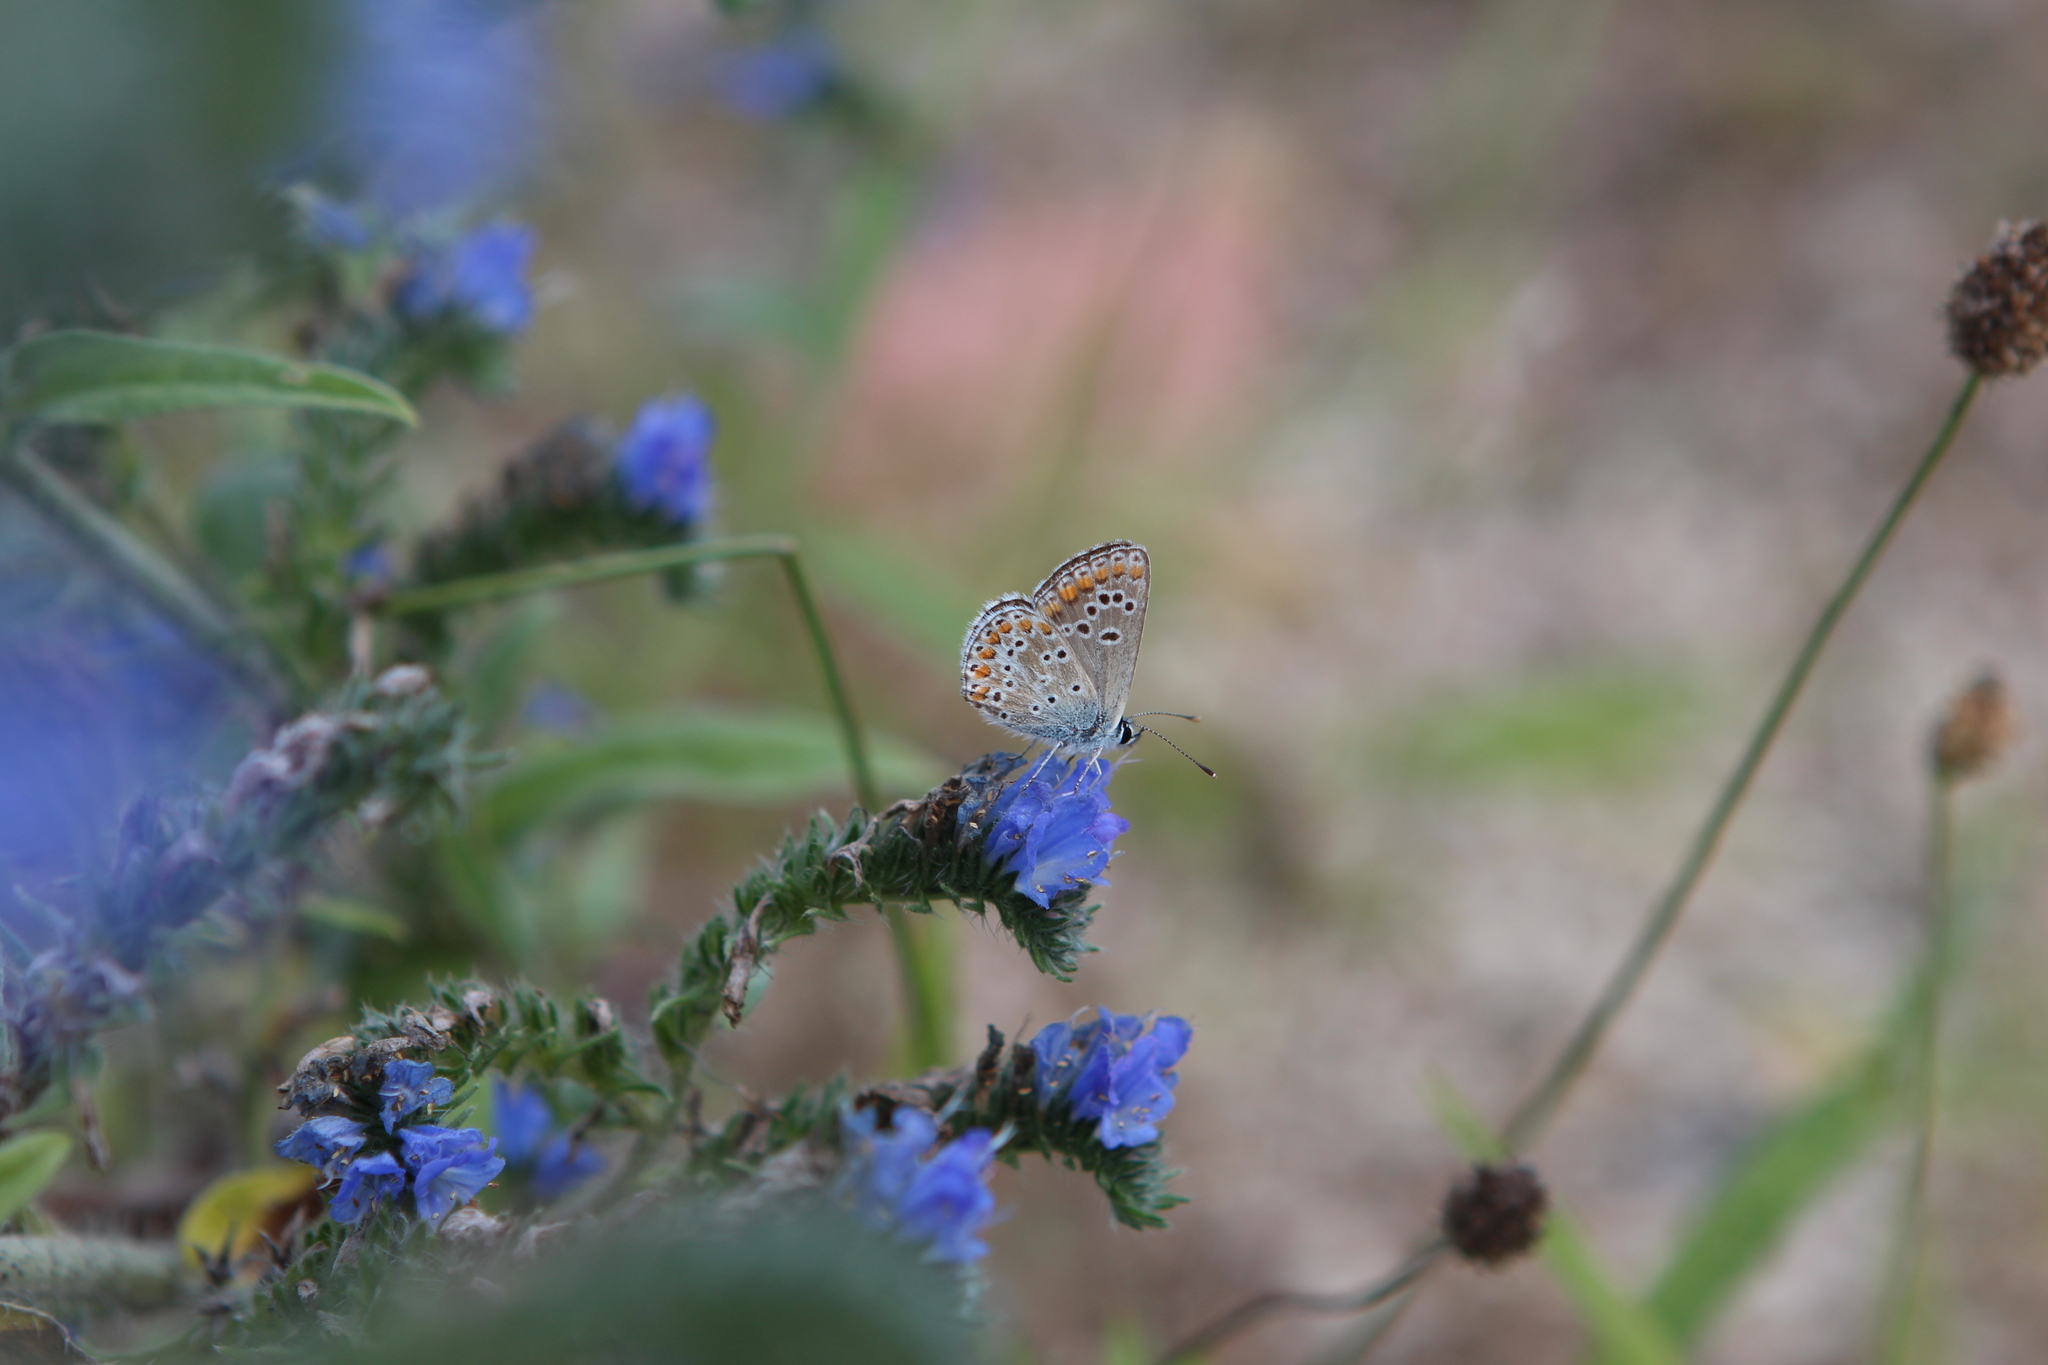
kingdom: Animalia
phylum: Arthropoda
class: Insecta
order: Lepidoptera
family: Lycaenidae
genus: Aricia
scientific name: Aricia agestis
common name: Brown argus
